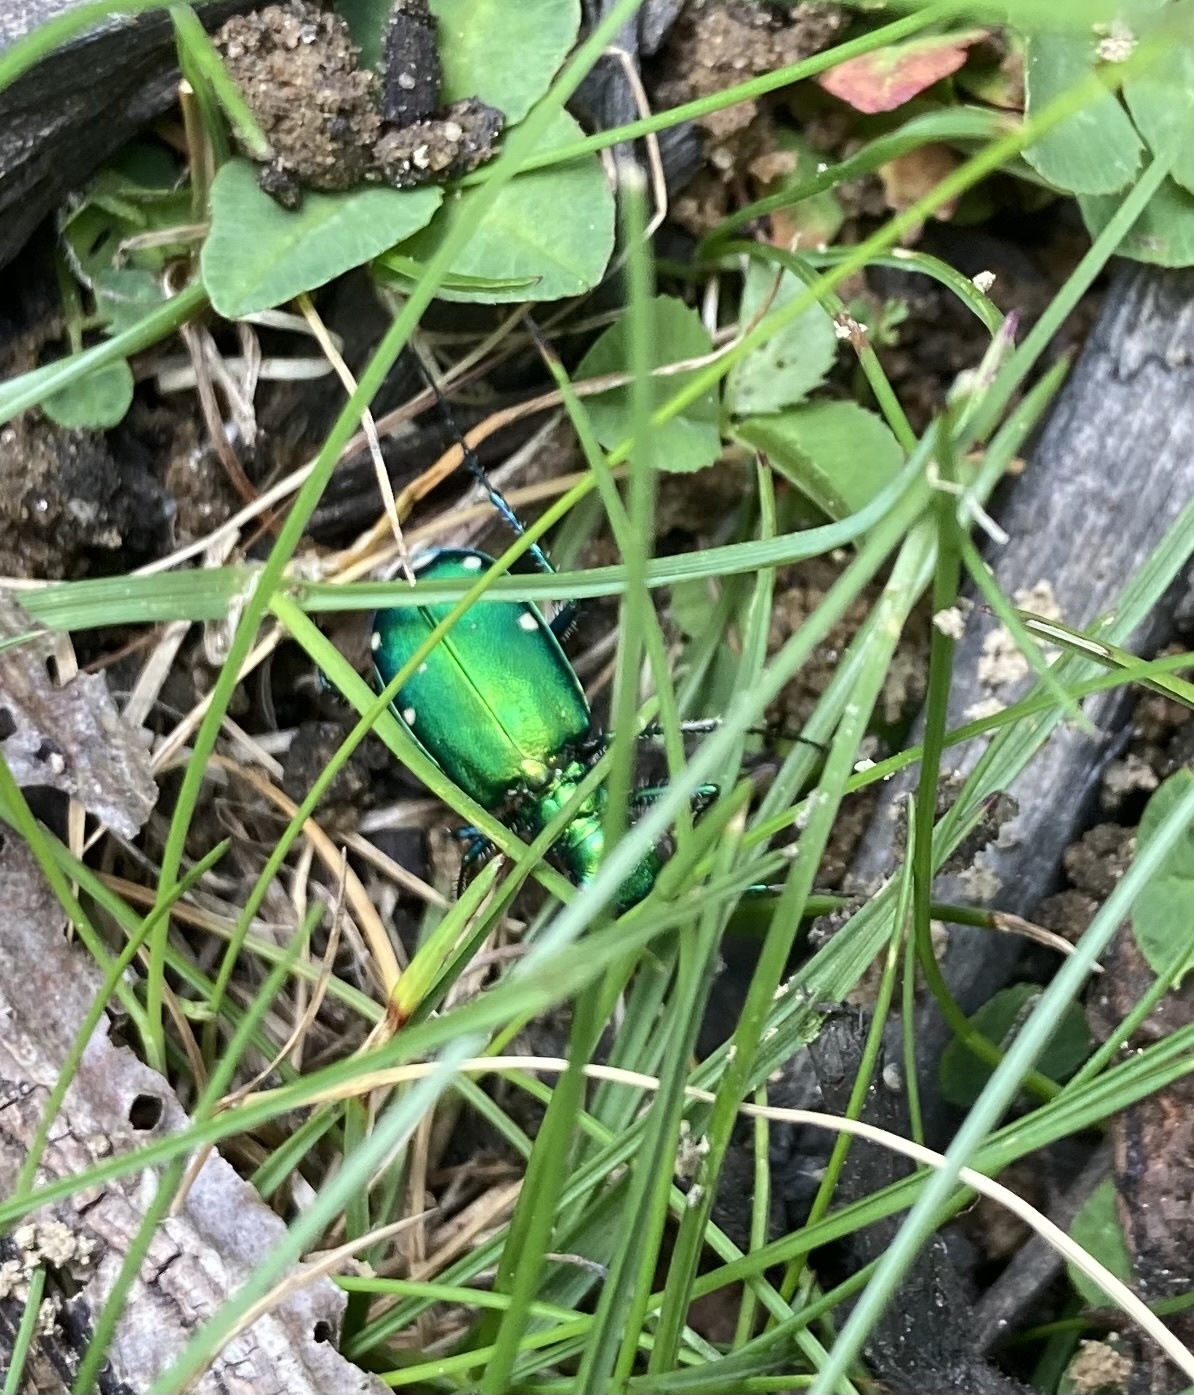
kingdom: Animalia
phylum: Arthropoda
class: Insecta
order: Coleoptera
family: Carabidae
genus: Cicindela
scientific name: Cicindela sexguttata
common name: Six-spotted tiger beetle
